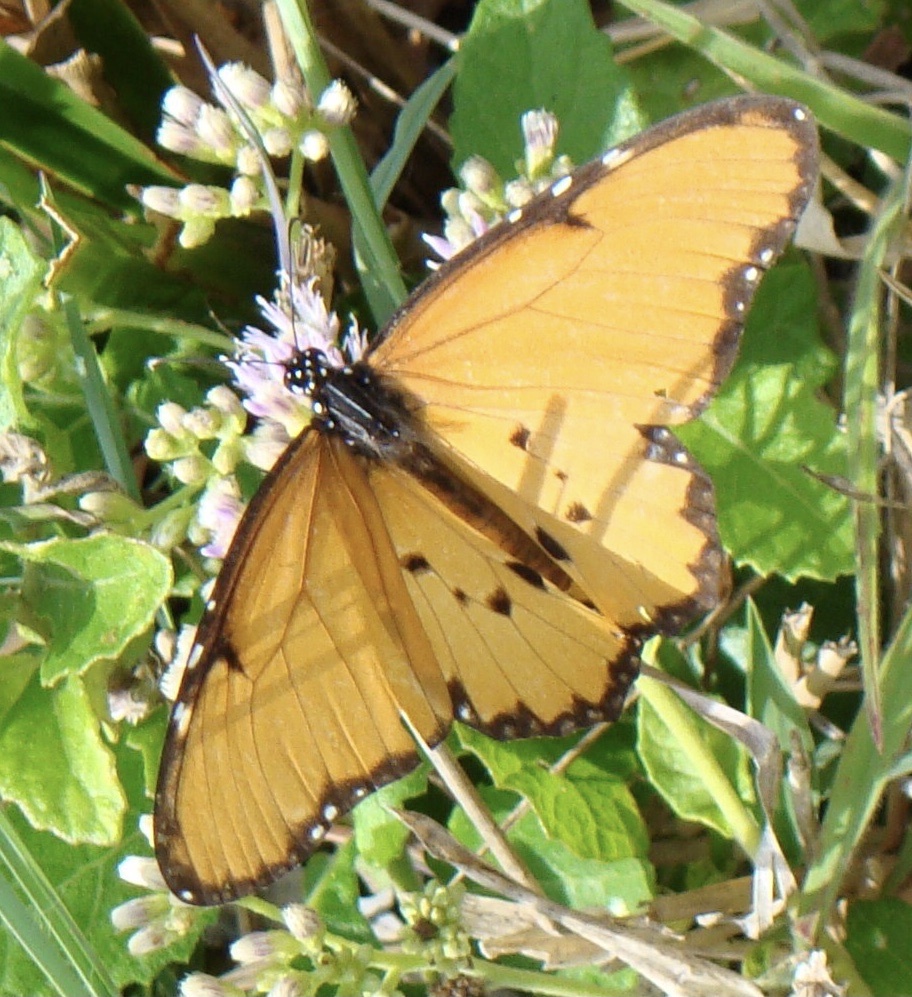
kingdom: Animalia
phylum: Arthropoda
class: Insecta
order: Lepidoptera
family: Nymphalidae
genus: Danaus
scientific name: Danaus chrysippus
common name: Plain tiger
